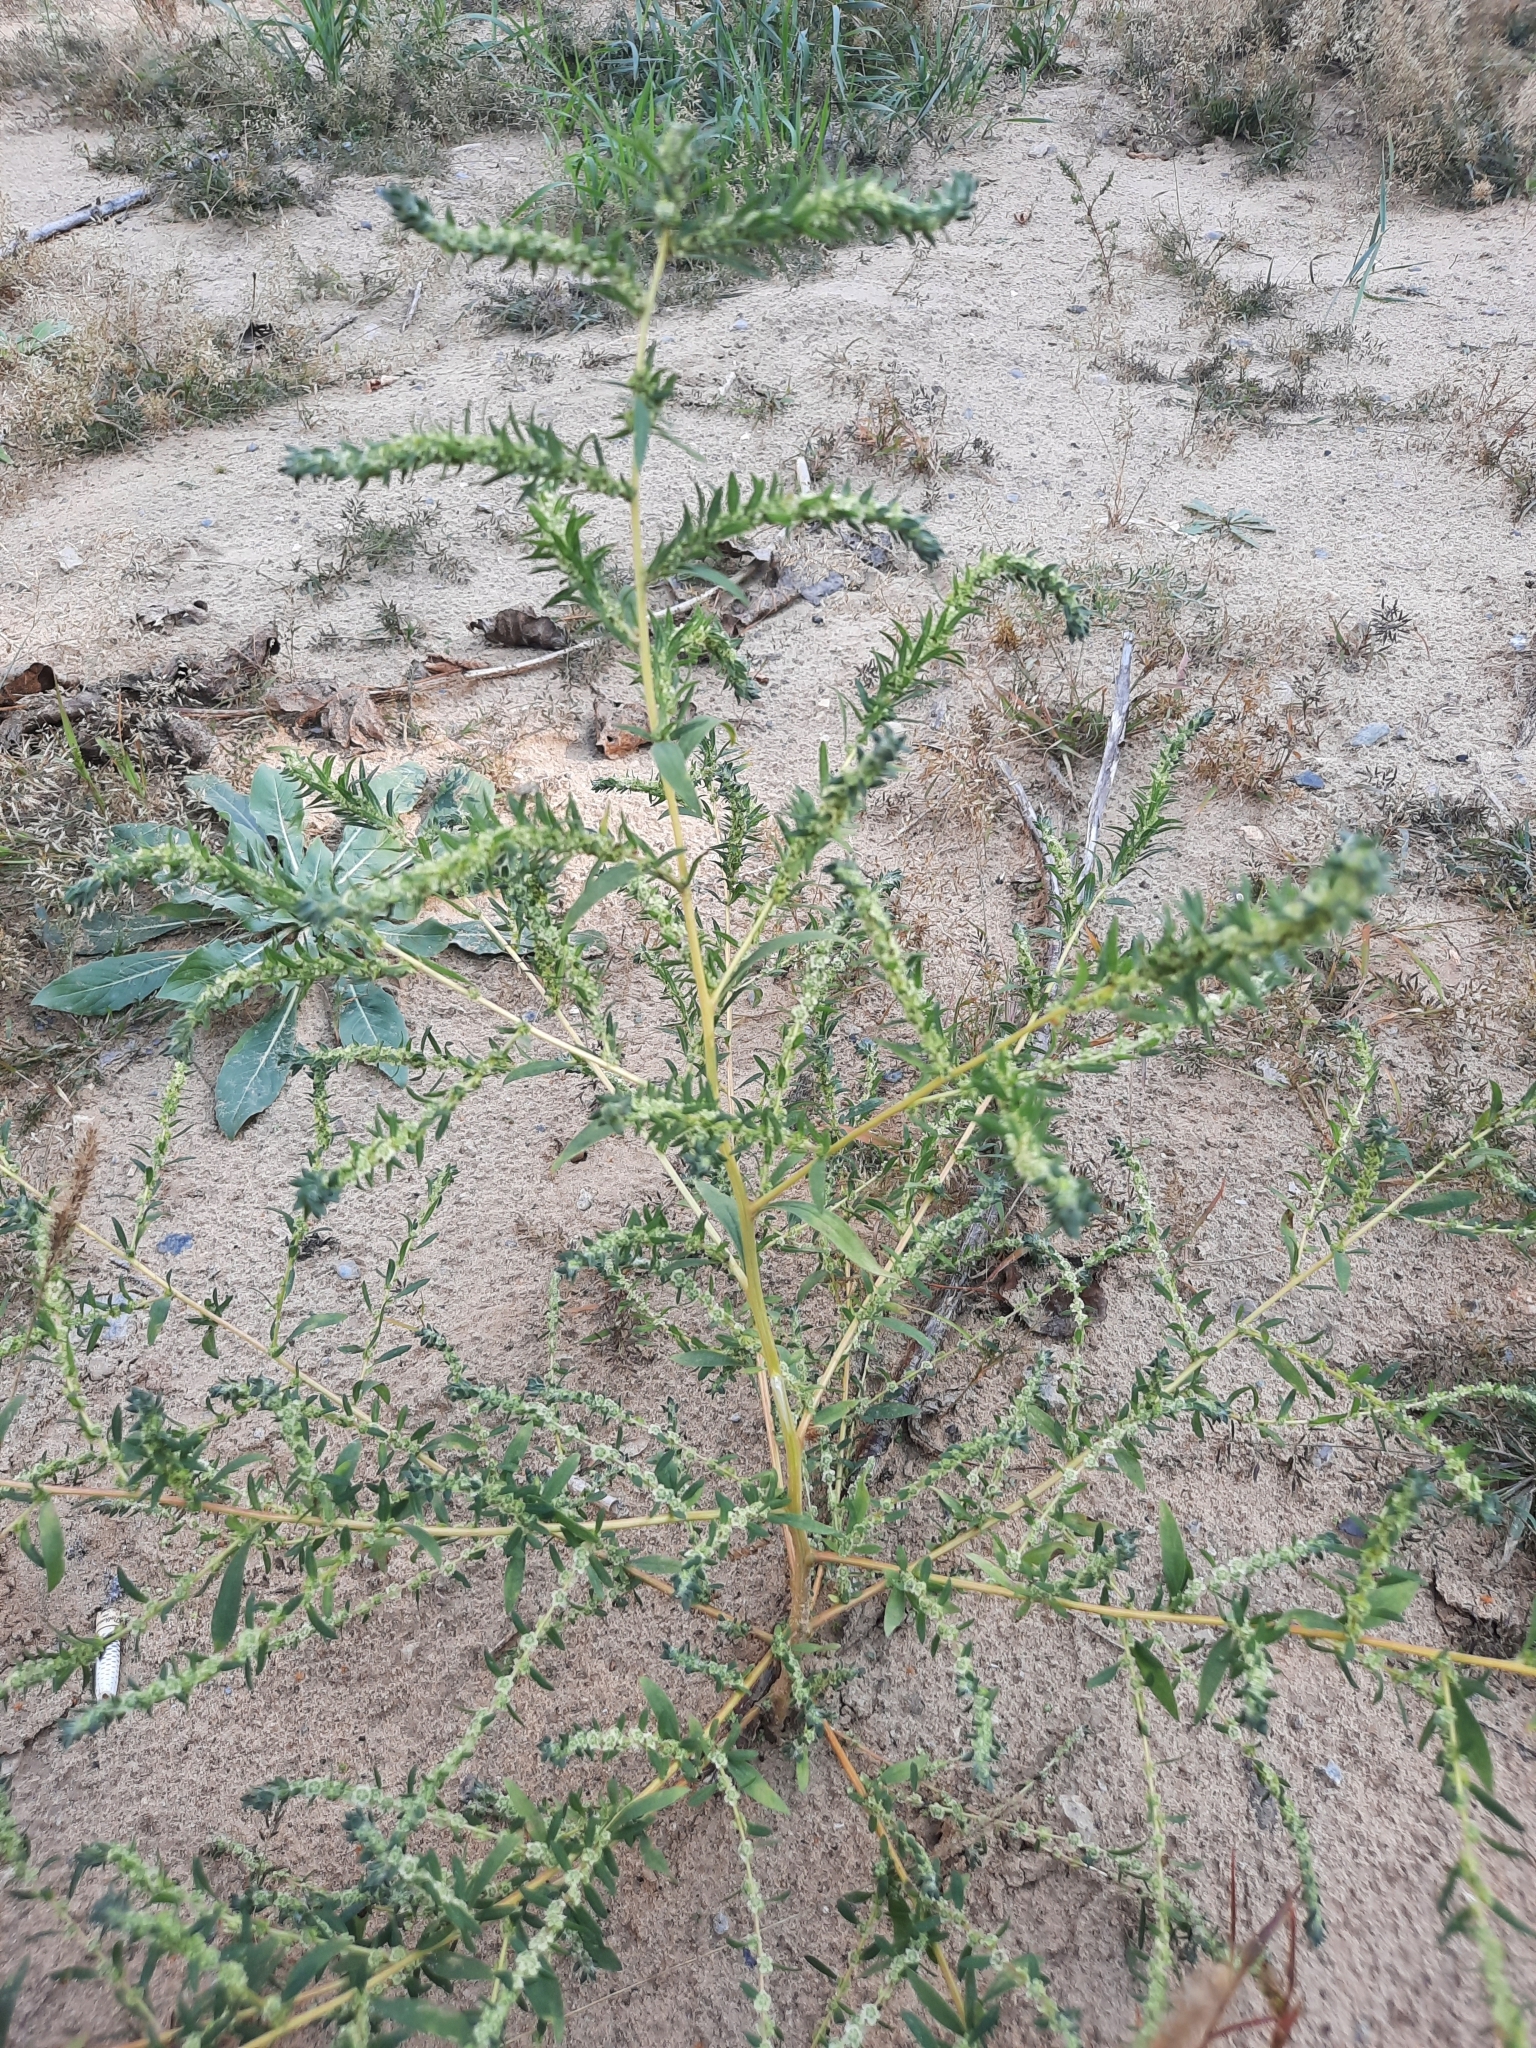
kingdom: Plantae
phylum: Tracheophyta
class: Magnoliopsida
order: Caryophyllales
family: Amaranthaceae
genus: Bassia
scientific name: Bassia scoparia
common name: Belvedere
